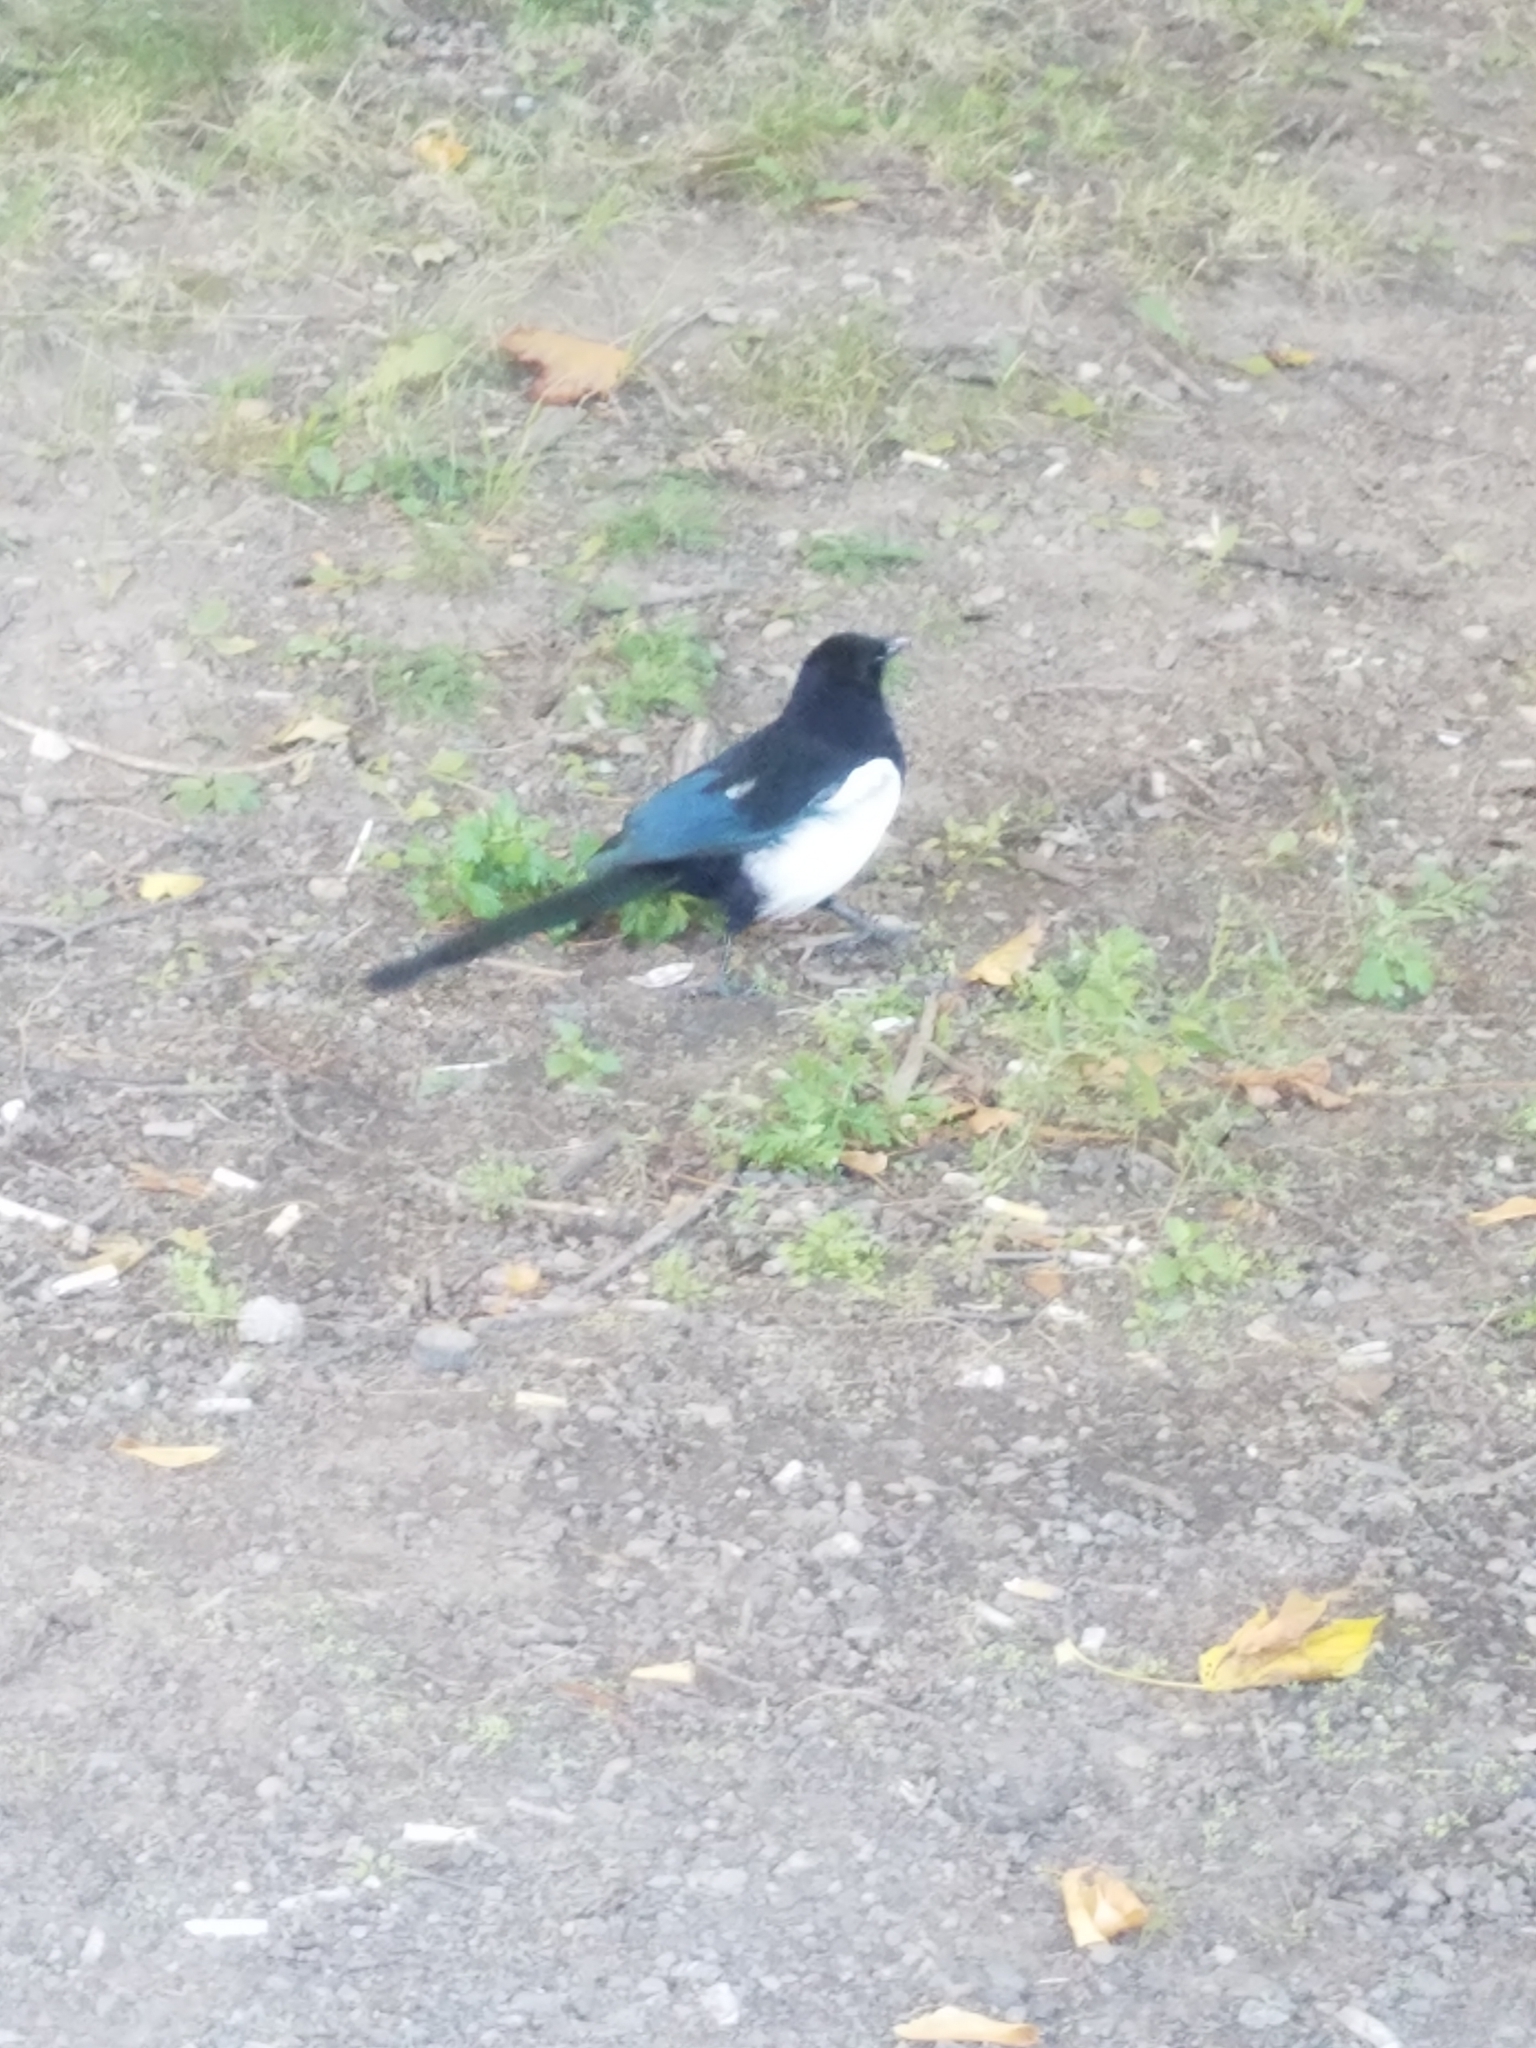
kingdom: Animalia
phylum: Chordata
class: Aves
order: Passeriformes
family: Corvidae
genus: Pica
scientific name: Pica pica
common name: Eurasian magpie
